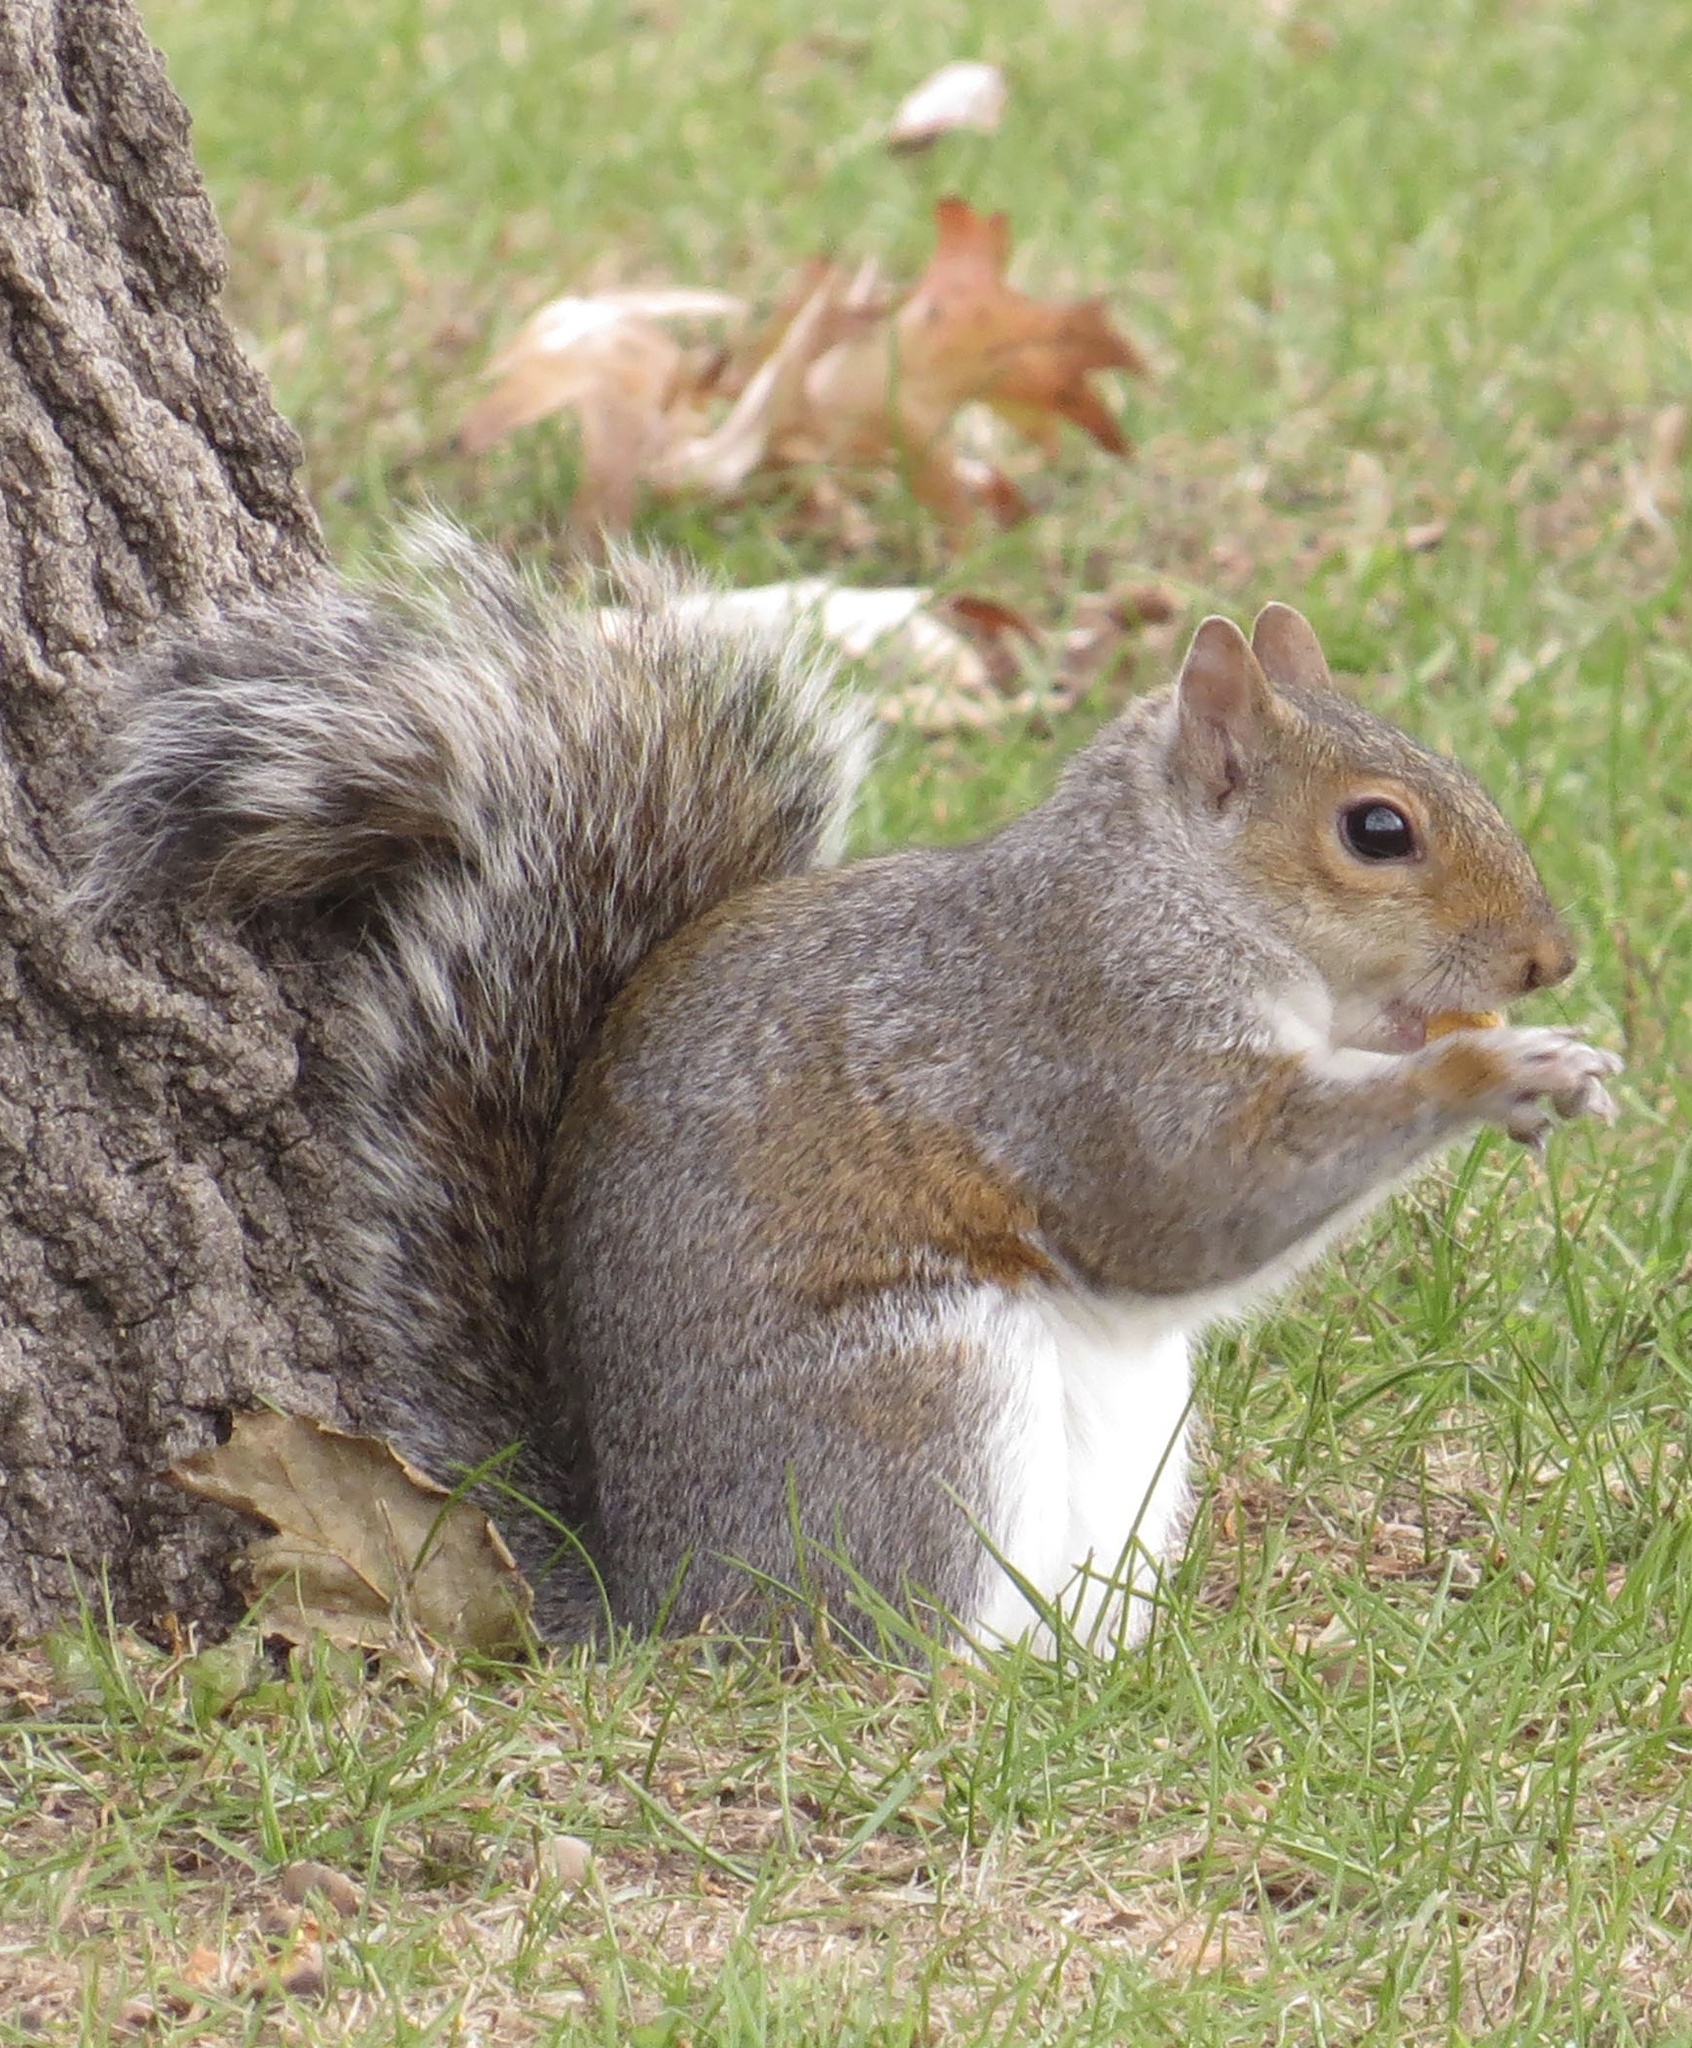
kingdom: Animalia
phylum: Chordata
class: Mammalia
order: Rodentia
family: Sciuridae
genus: Sciurus
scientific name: Sciurus carolinensis
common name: Eastern gray squirrel
